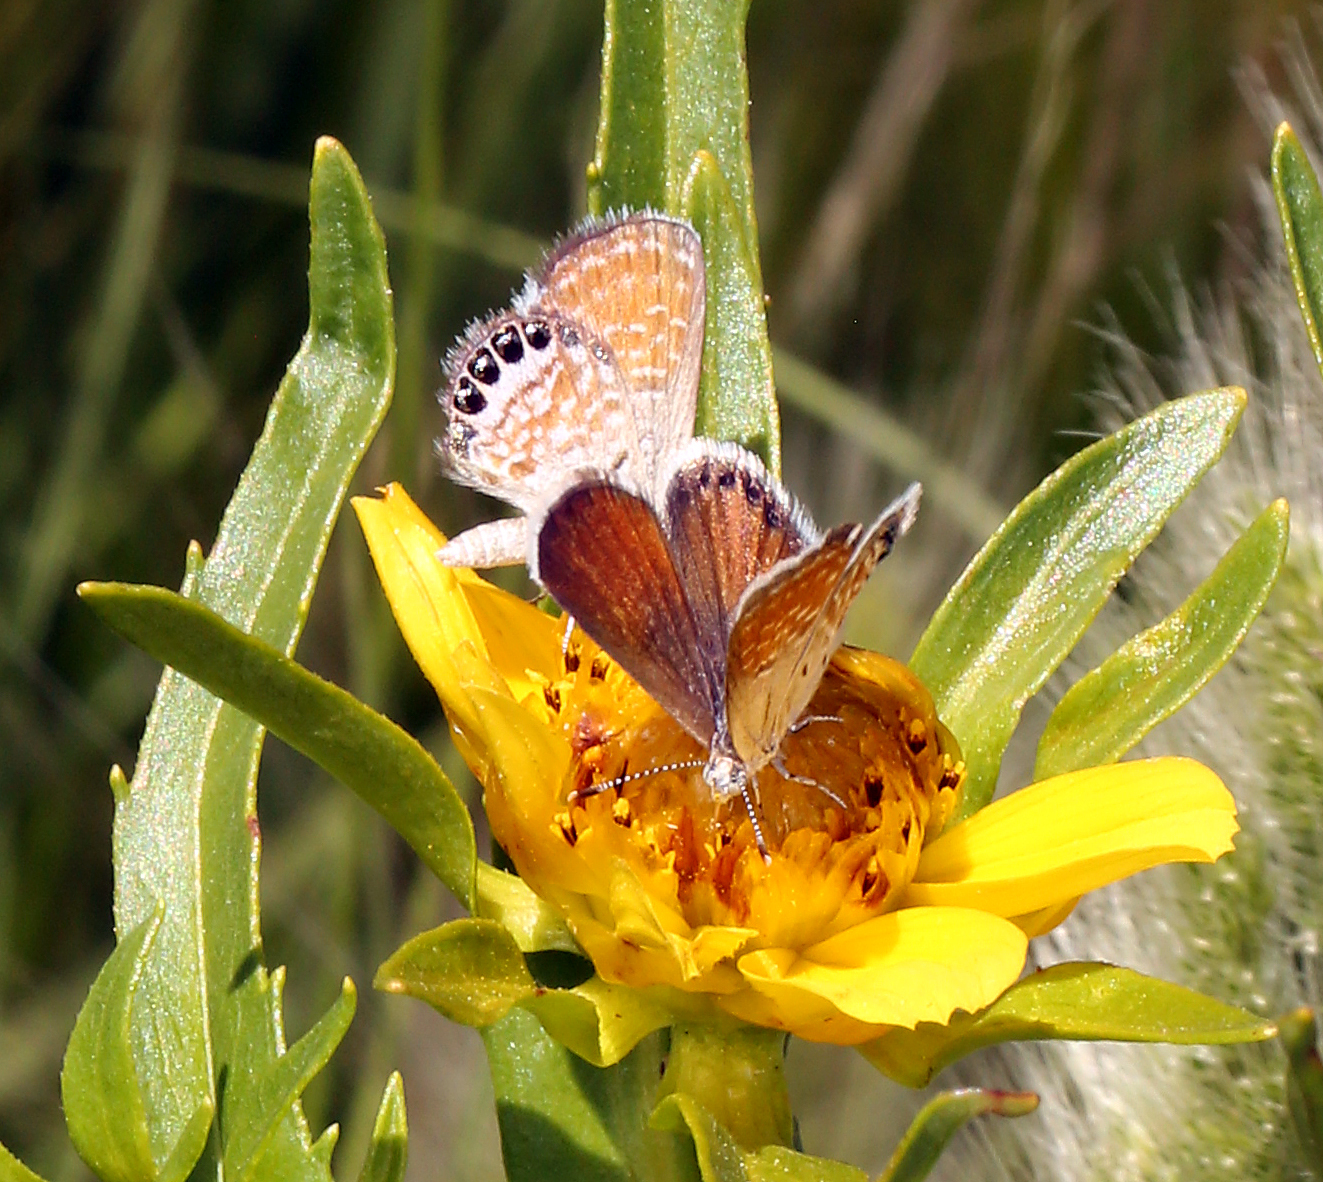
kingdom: Animalia
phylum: Arthropoda
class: Insecta
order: Lepidoptera
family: Lycaenidae
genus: Brephidium
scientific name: Brephidium exilis
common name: Pygmy blue
